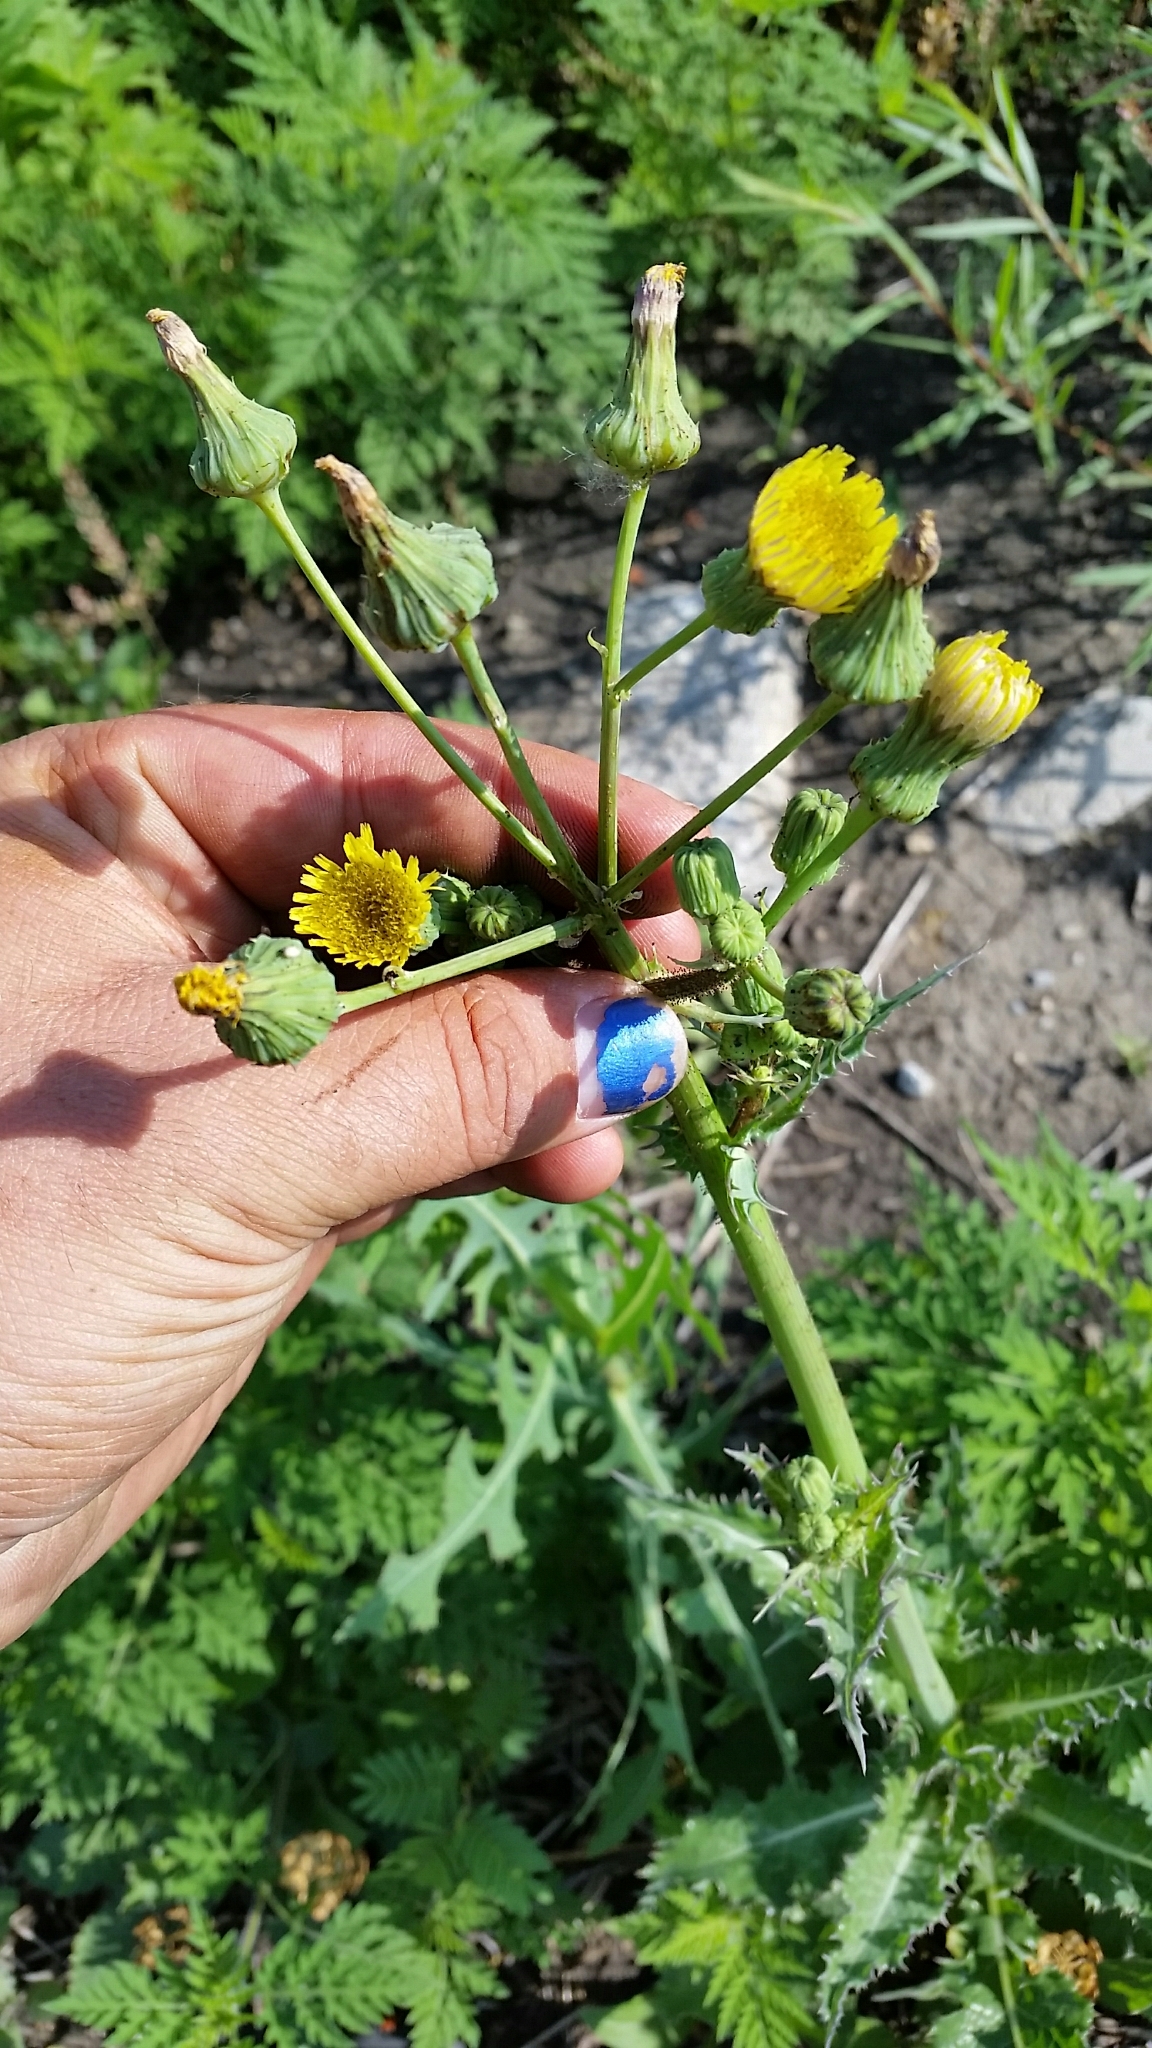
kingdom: Plantae
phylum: Tracheophyta
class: Magnoliopsida
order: Asterales
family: Asteraceae
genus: Sonchus
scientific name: Sonchus asper
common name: Prickly sow-thistle
